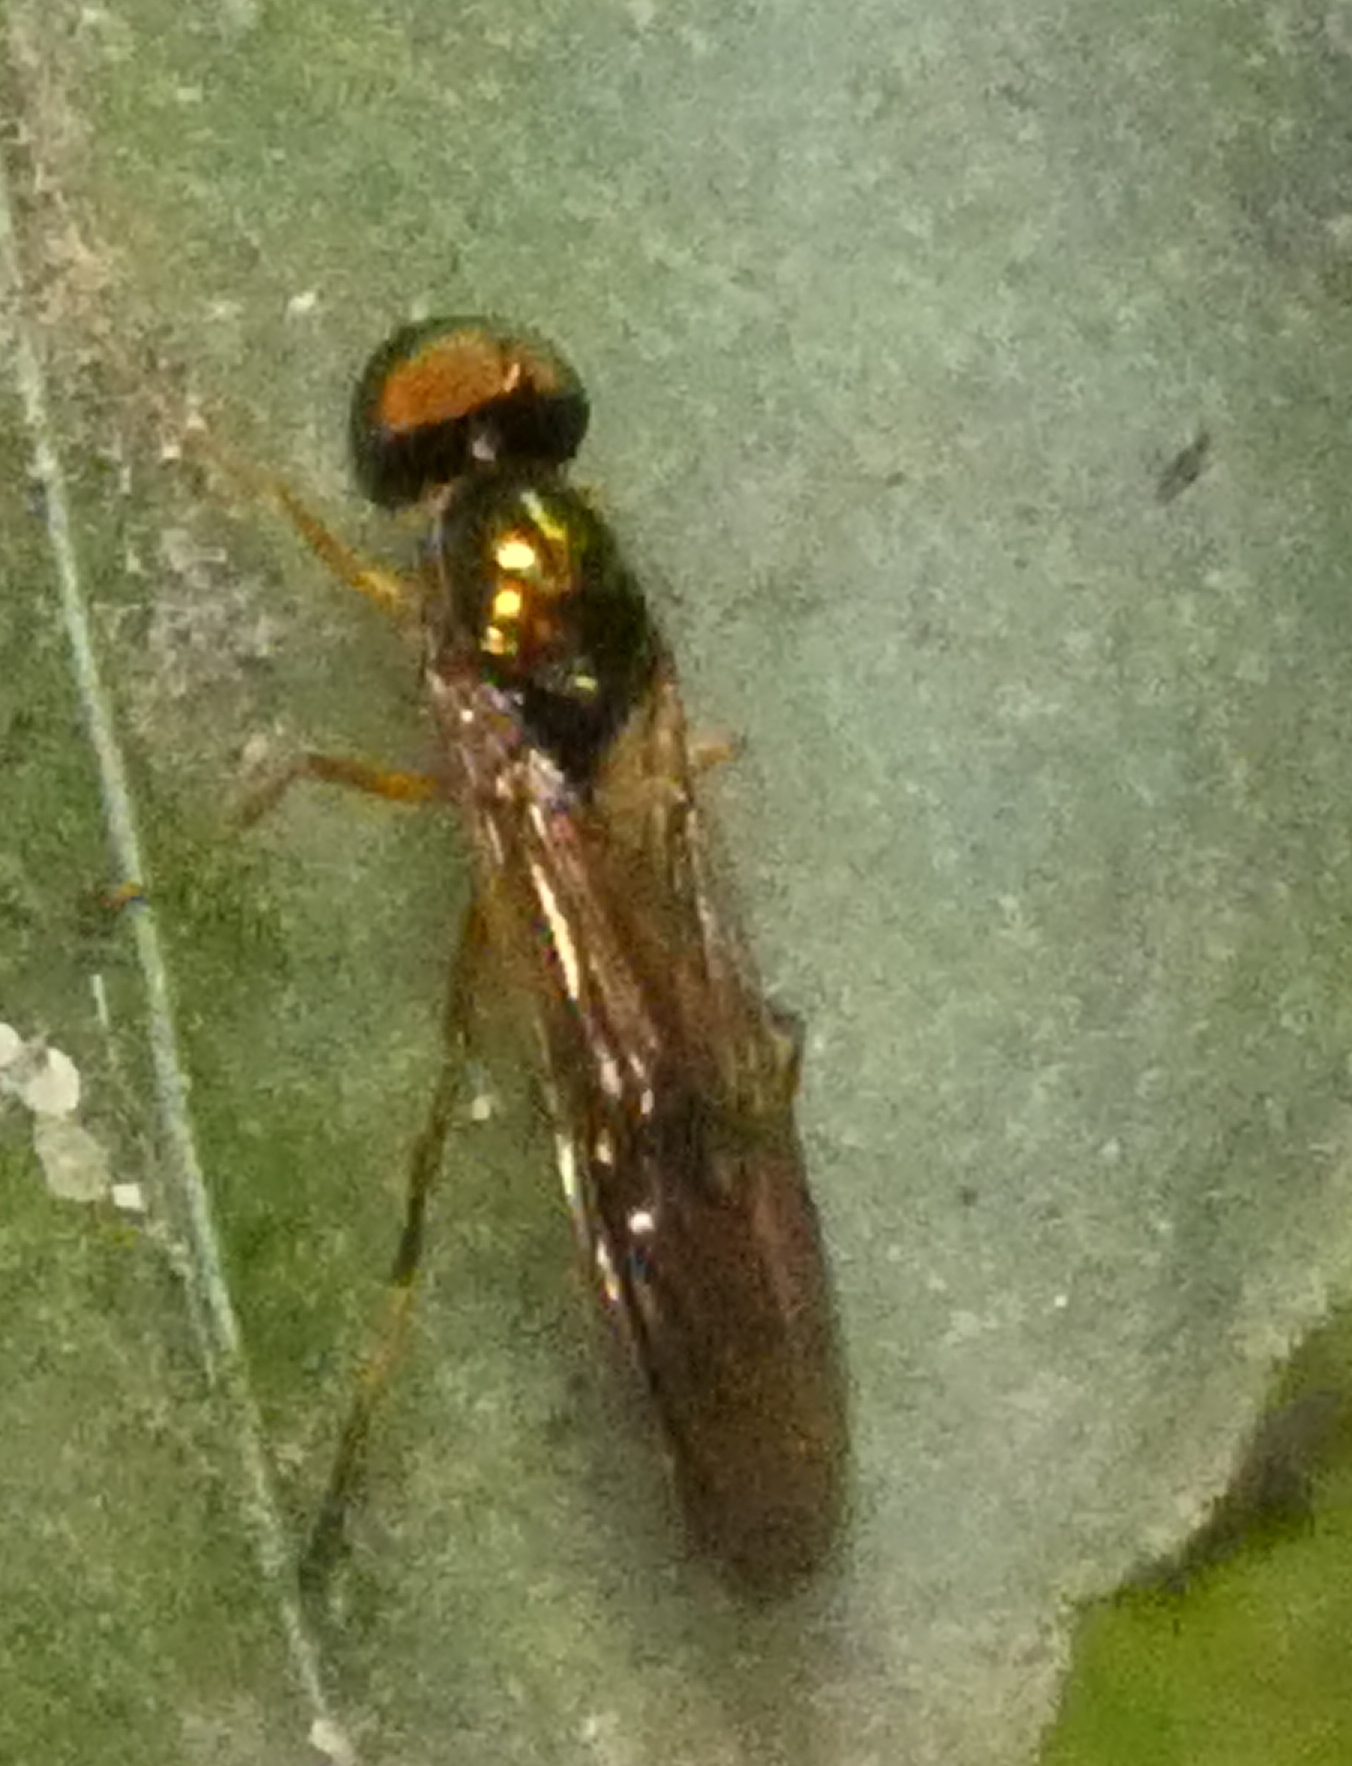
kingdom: Animalia
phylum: Arthropoda
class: Insecta
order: Diptera
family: Stratiomyidae
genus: Sargus
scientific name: Sargus fasciatus
